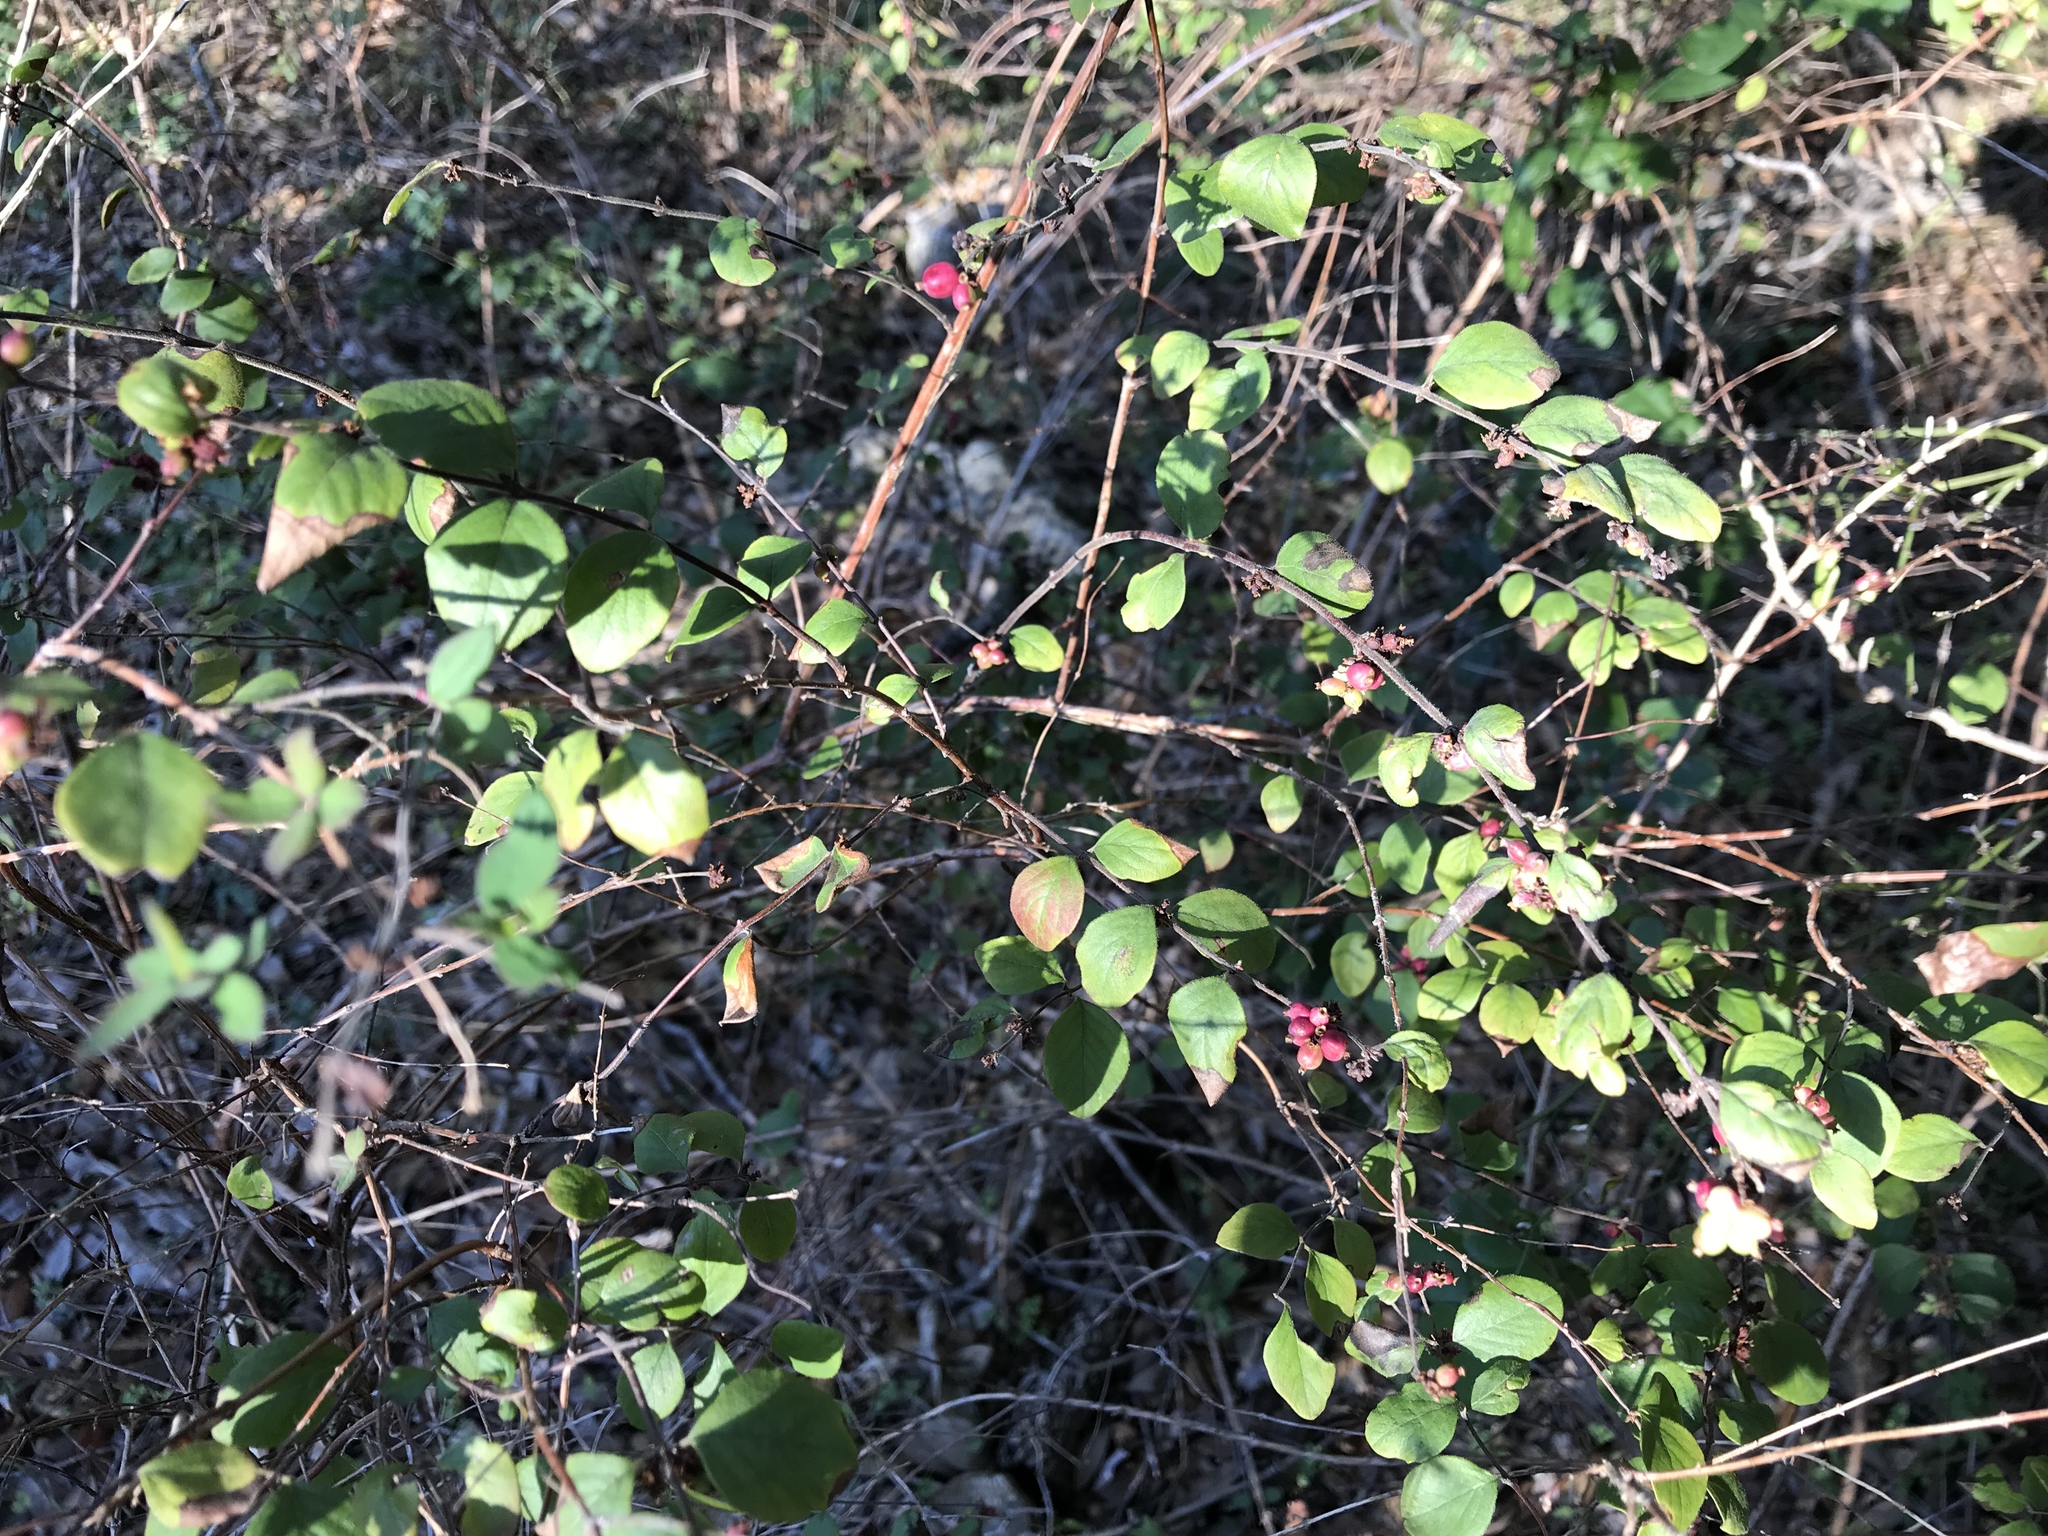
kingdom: Plantae
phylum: Tracheophyta
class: Magnoliopsida
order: Dipsacales
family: Caprifoliaceae
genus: Symphoricarpos
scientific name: Symphoricarpos orbiculatus
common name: Coralberry
